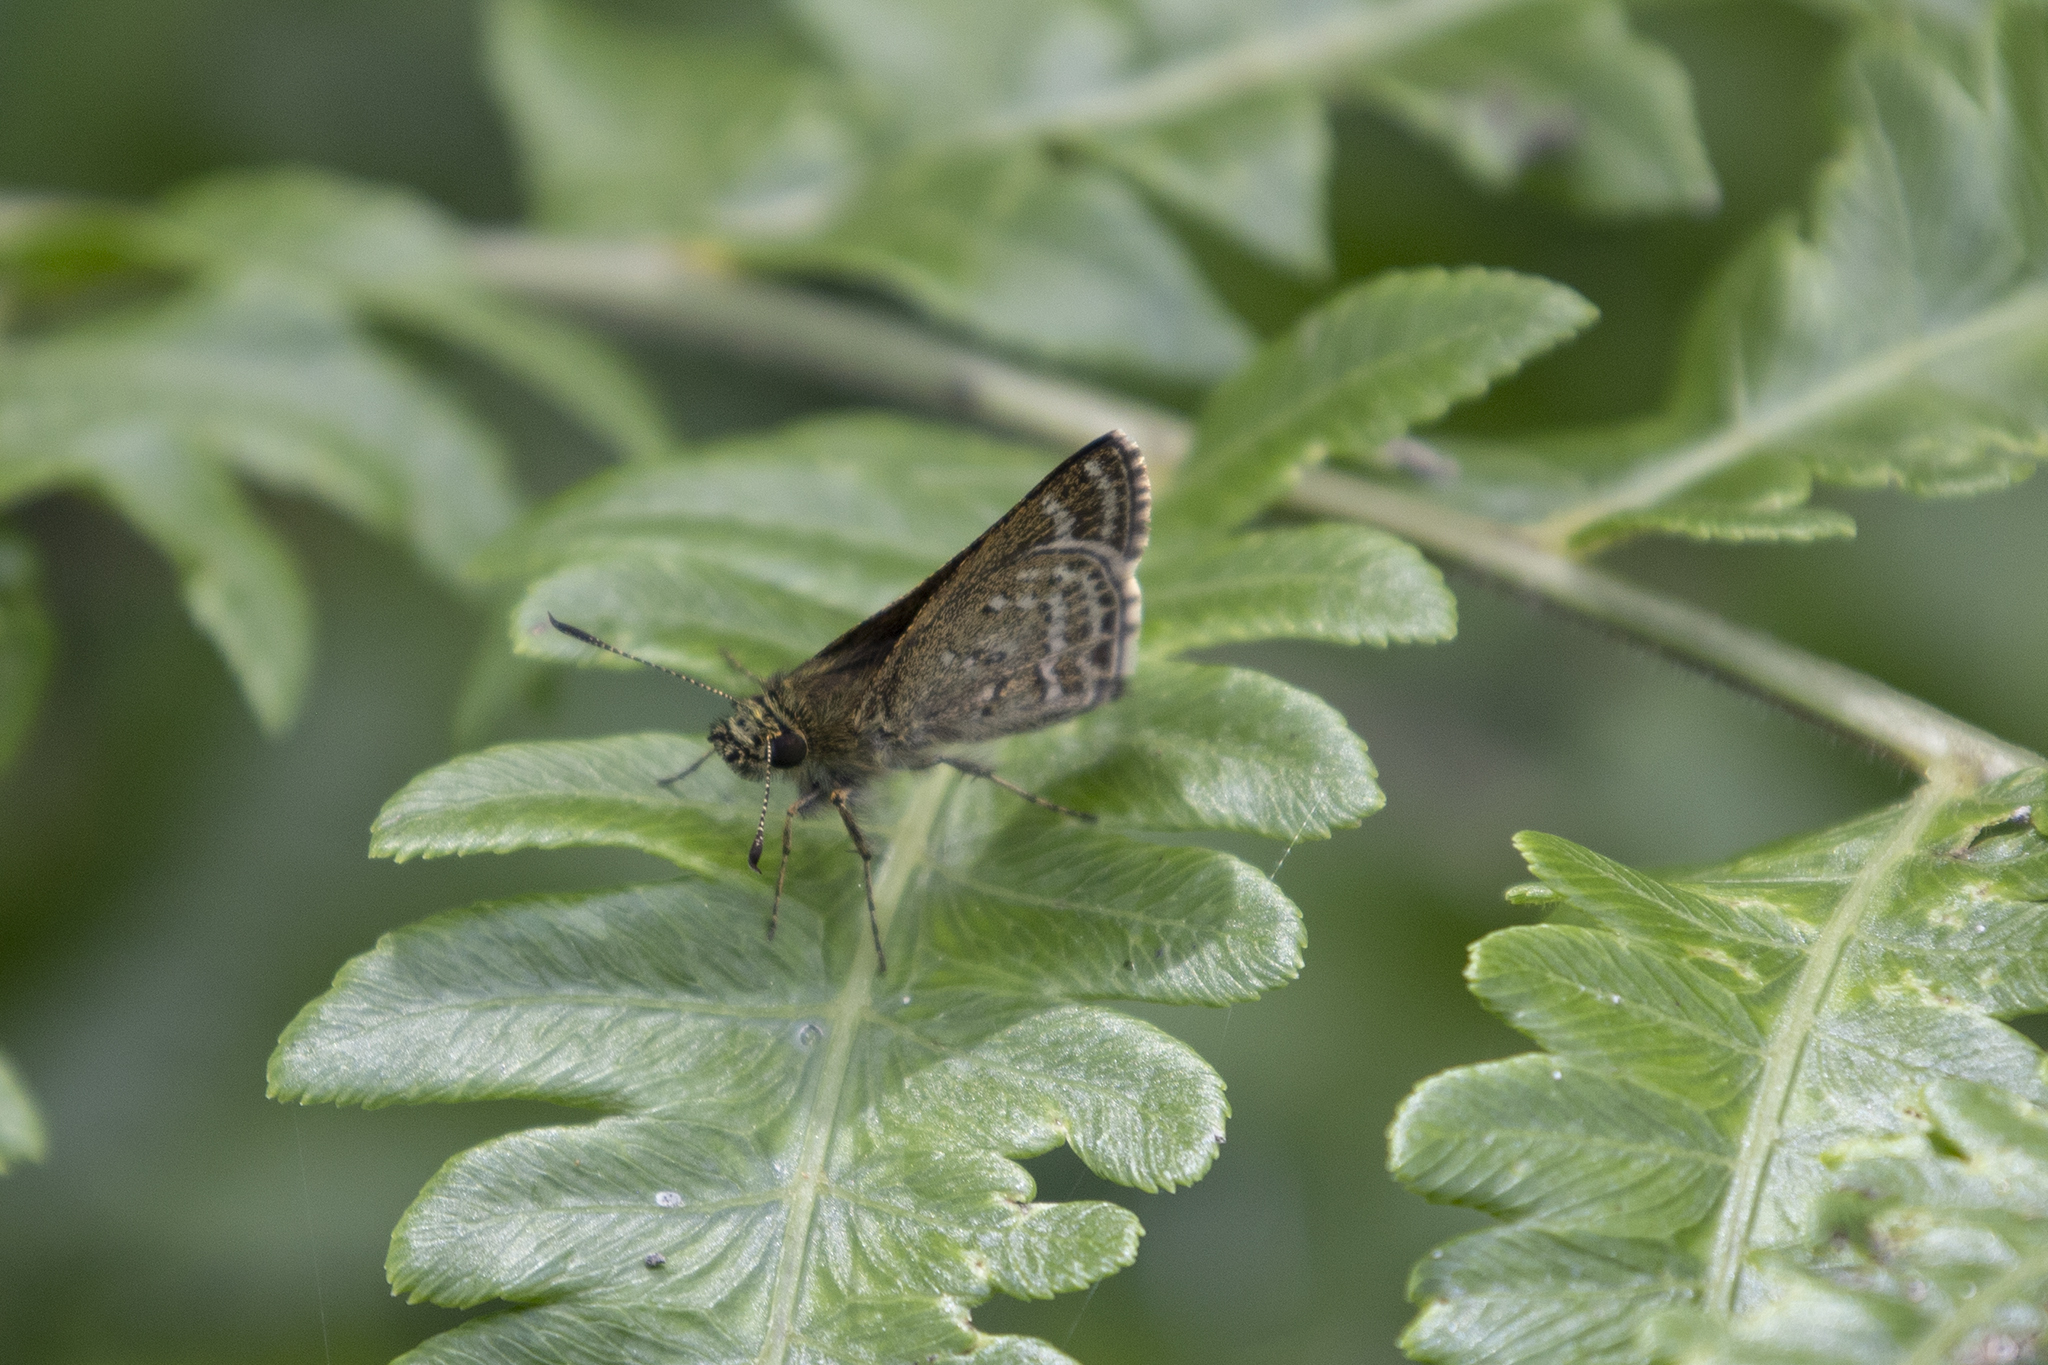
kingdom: Animalia
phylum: Arthropoda
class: Insecta
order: Lepidoptera
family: Hesperiidae
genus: Aeromachus
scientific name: Aeromachus stigmata
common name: Veined scrub hopper
